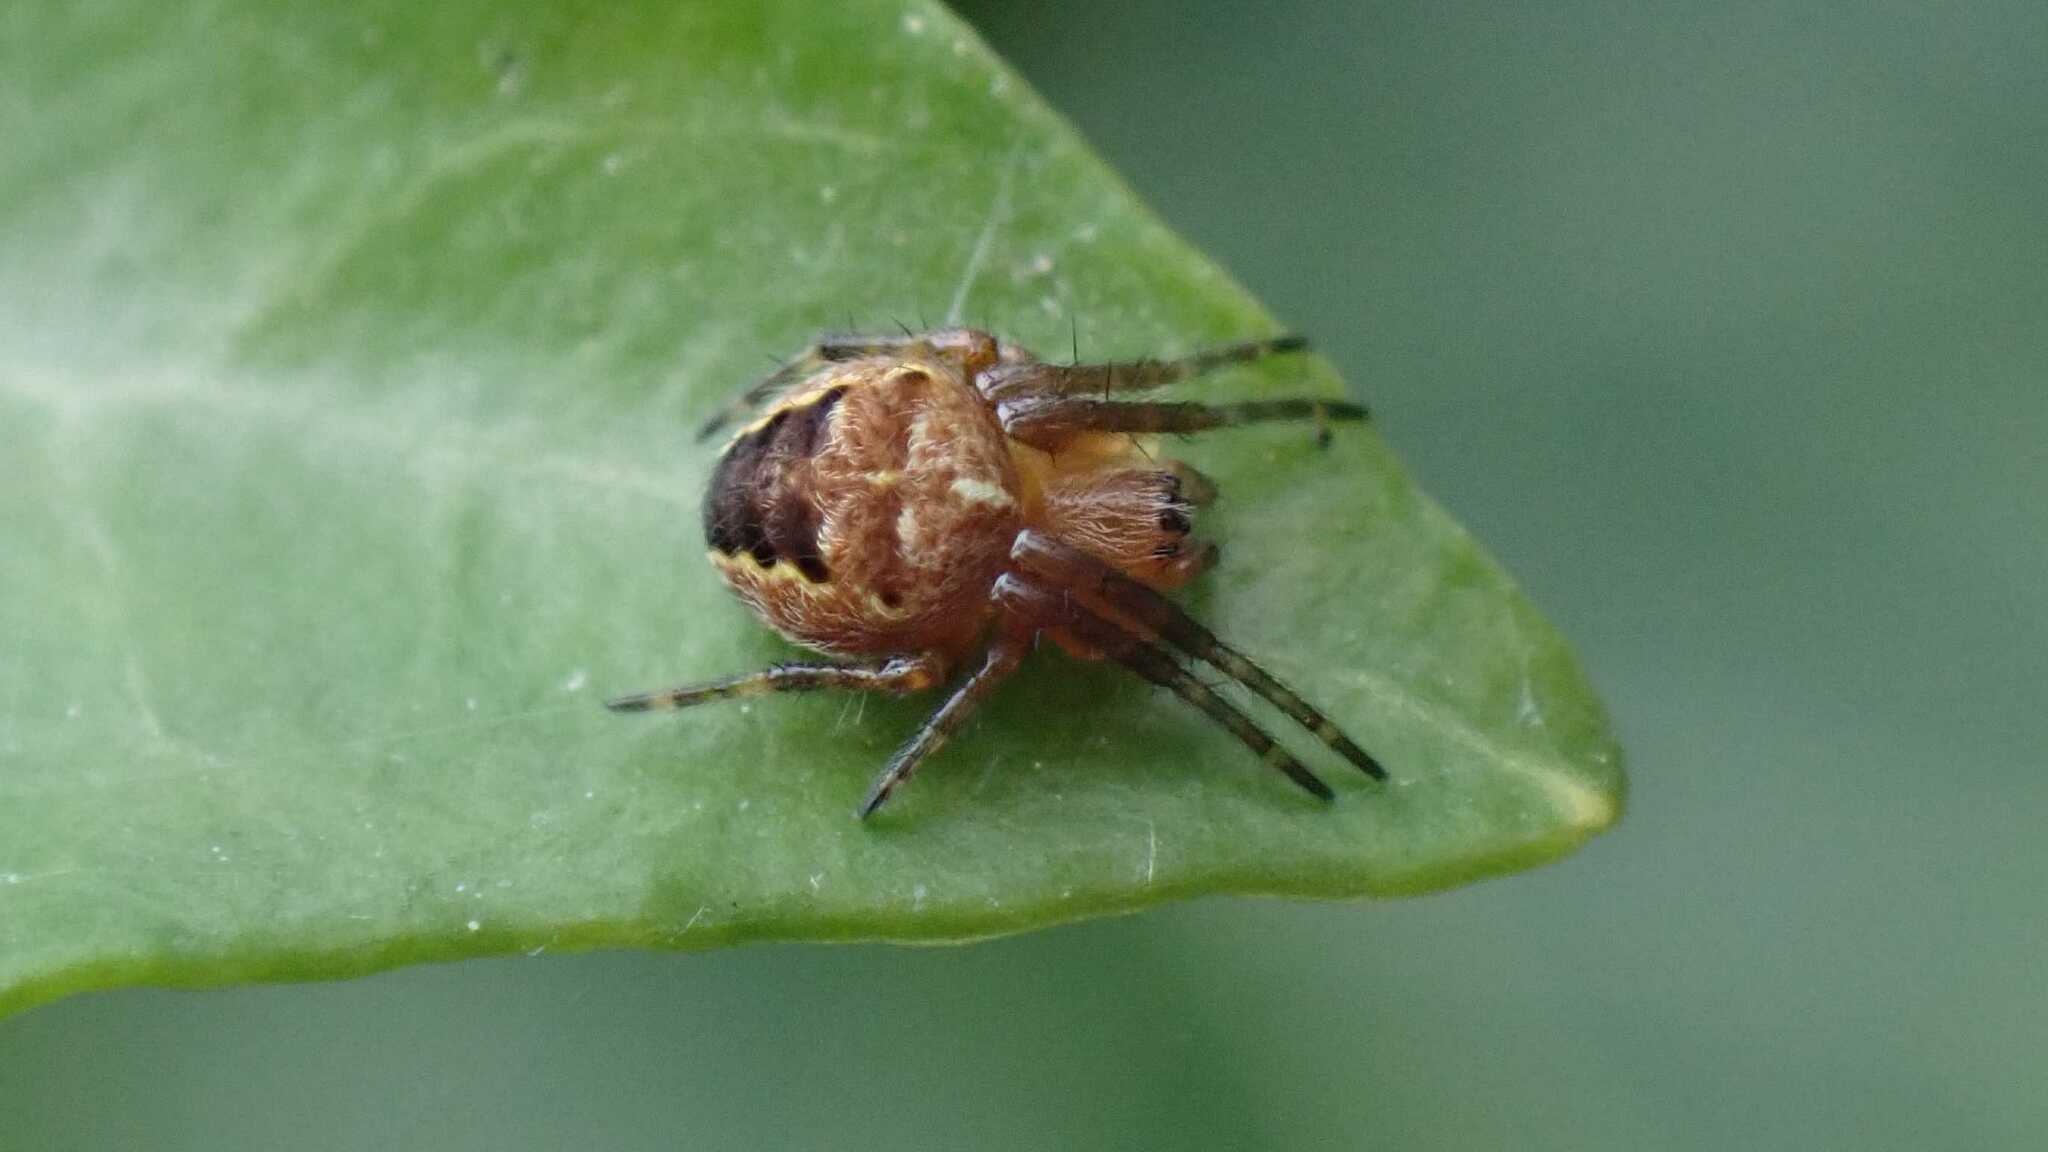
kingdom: Animalia
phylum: Arthropoda
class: Arachnida
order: Araneae
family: Araneidae
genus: Araneus
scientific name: Araneus diadematus
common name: Cross orbweaver
